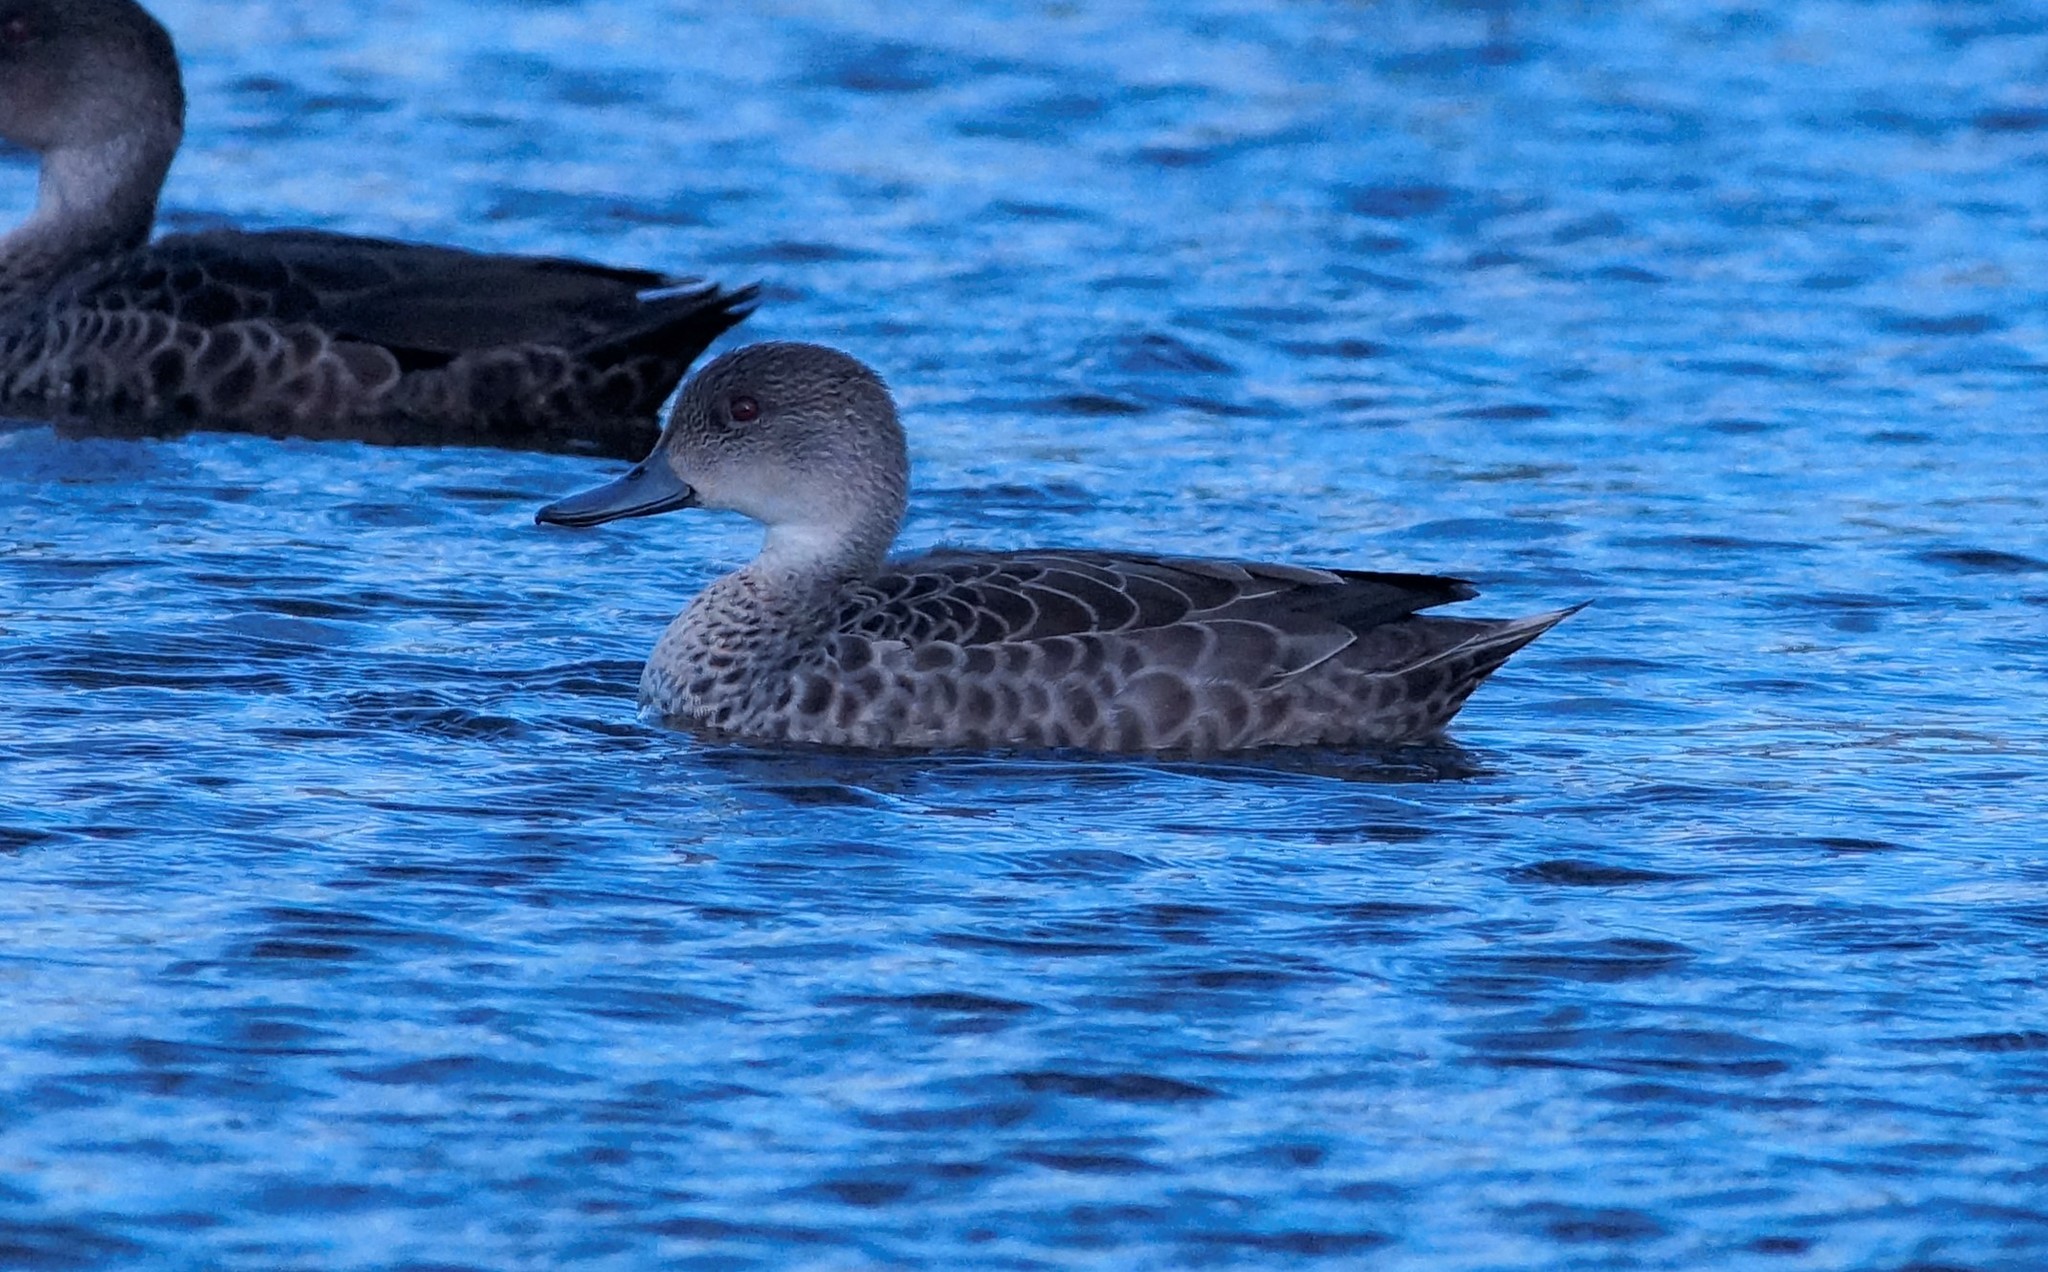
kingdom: Animalia
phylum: Chordata
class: Aves
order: Anseriformes
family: Anatidae
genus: Anas
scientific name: Anas gracilis
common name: Grey teal
